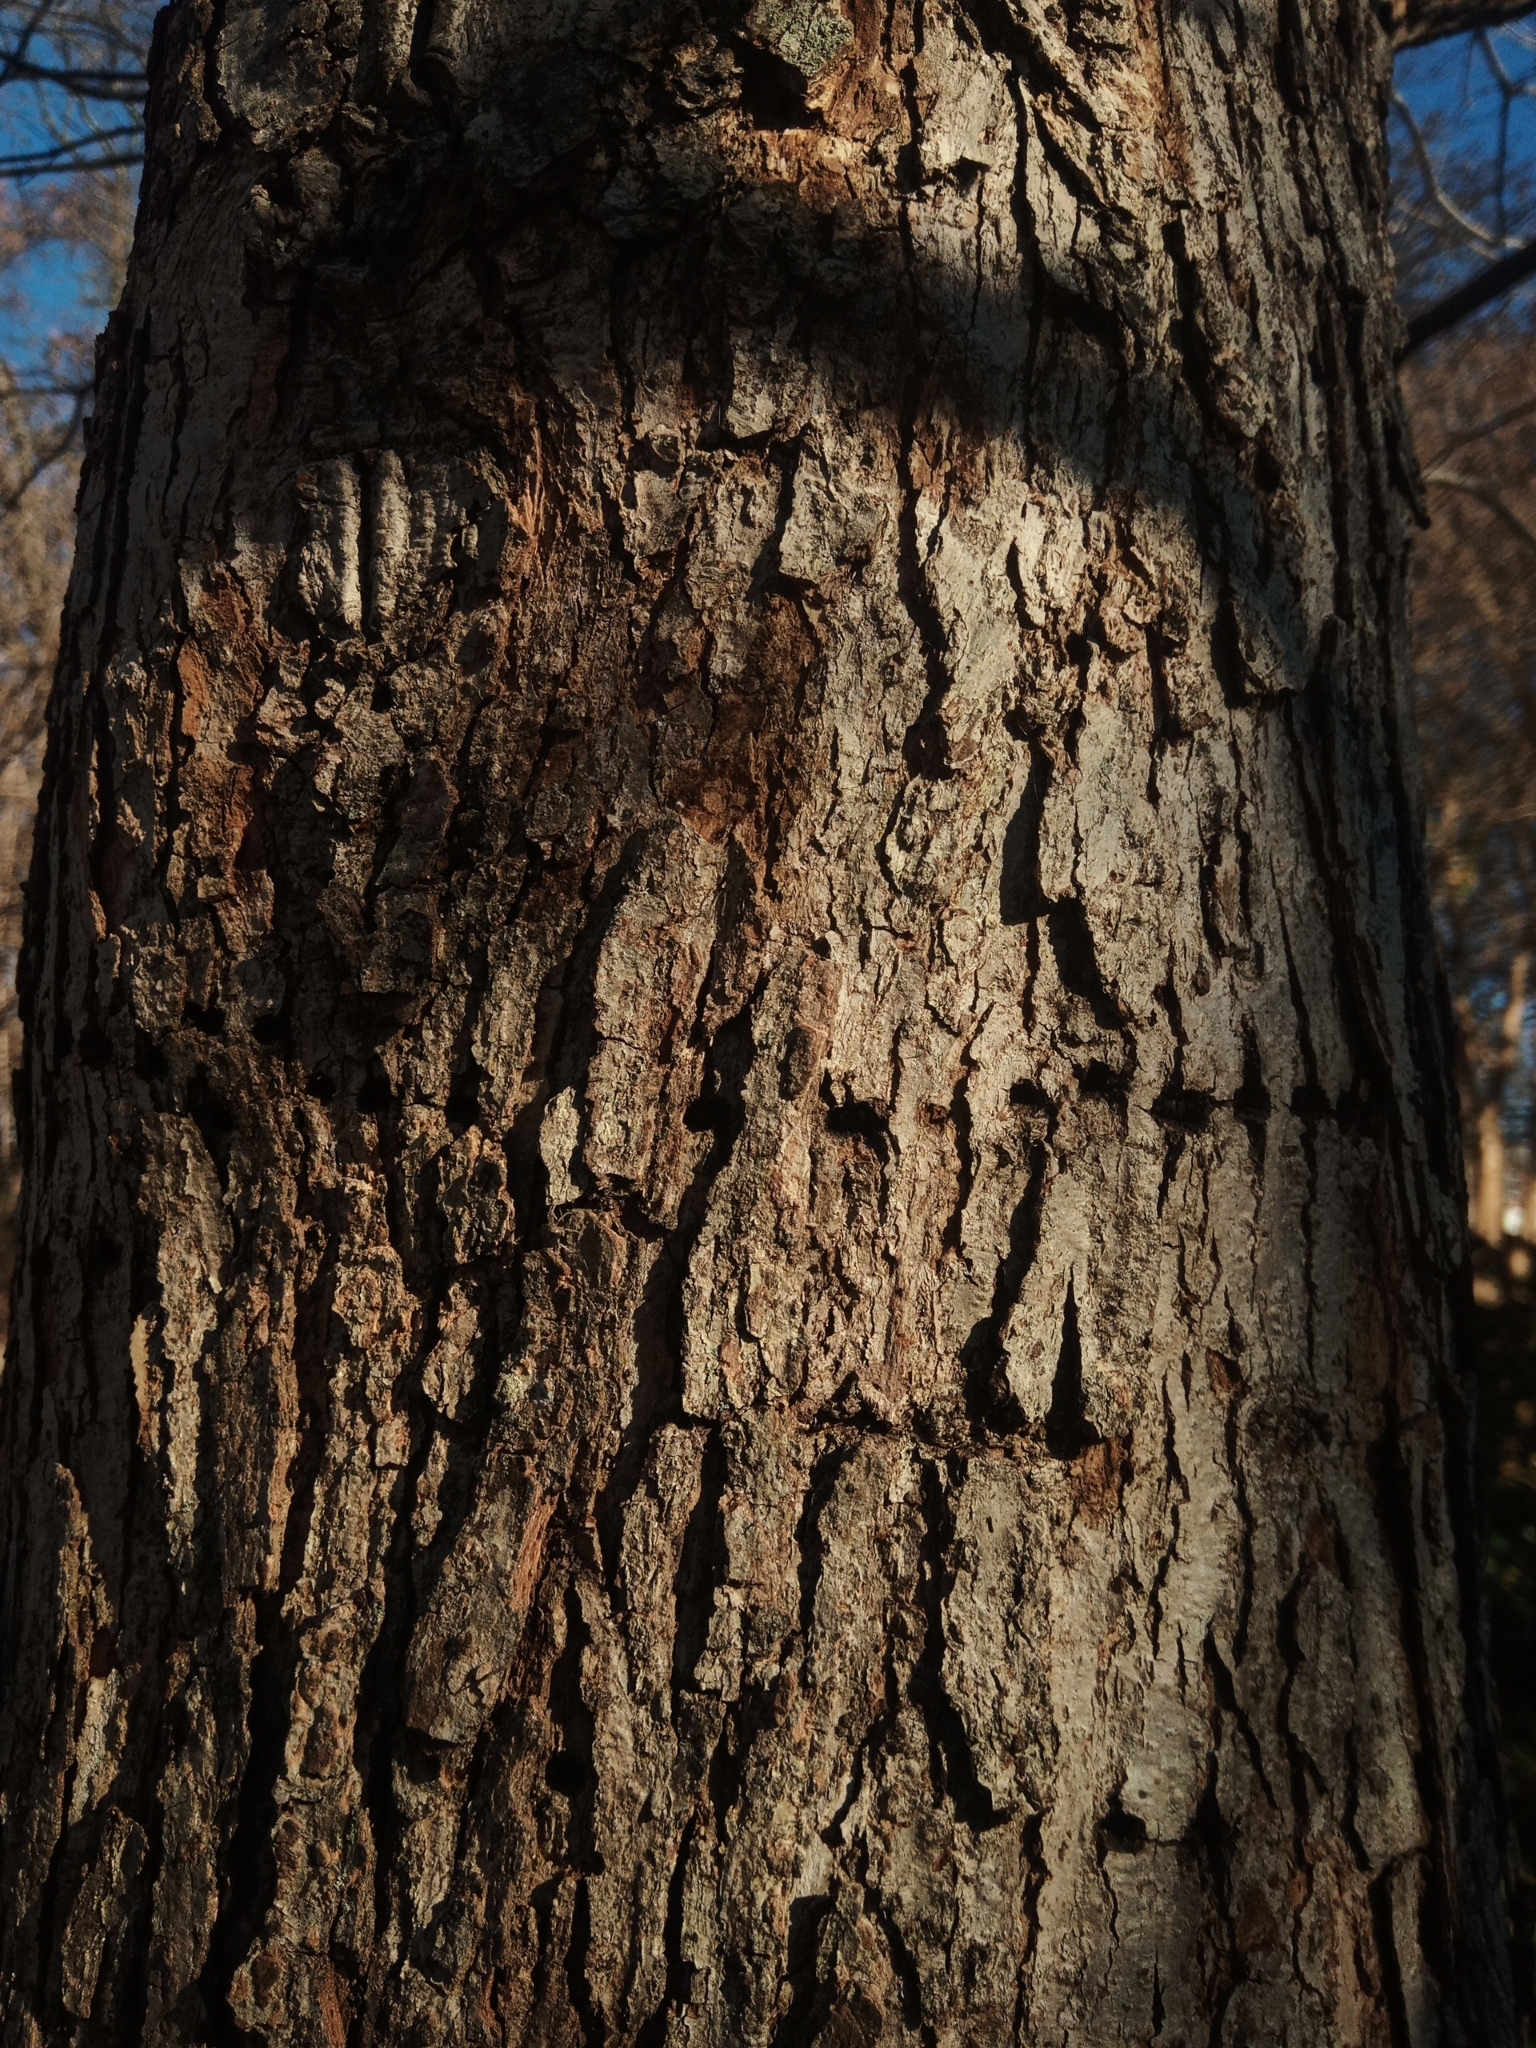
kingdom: Animalia
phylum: Chordata
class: Aves
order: Piciformes
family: Picidae
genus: Sphyrapicus
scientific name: Sphyrapicus varius
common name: Yellow-bellied sapsucker
